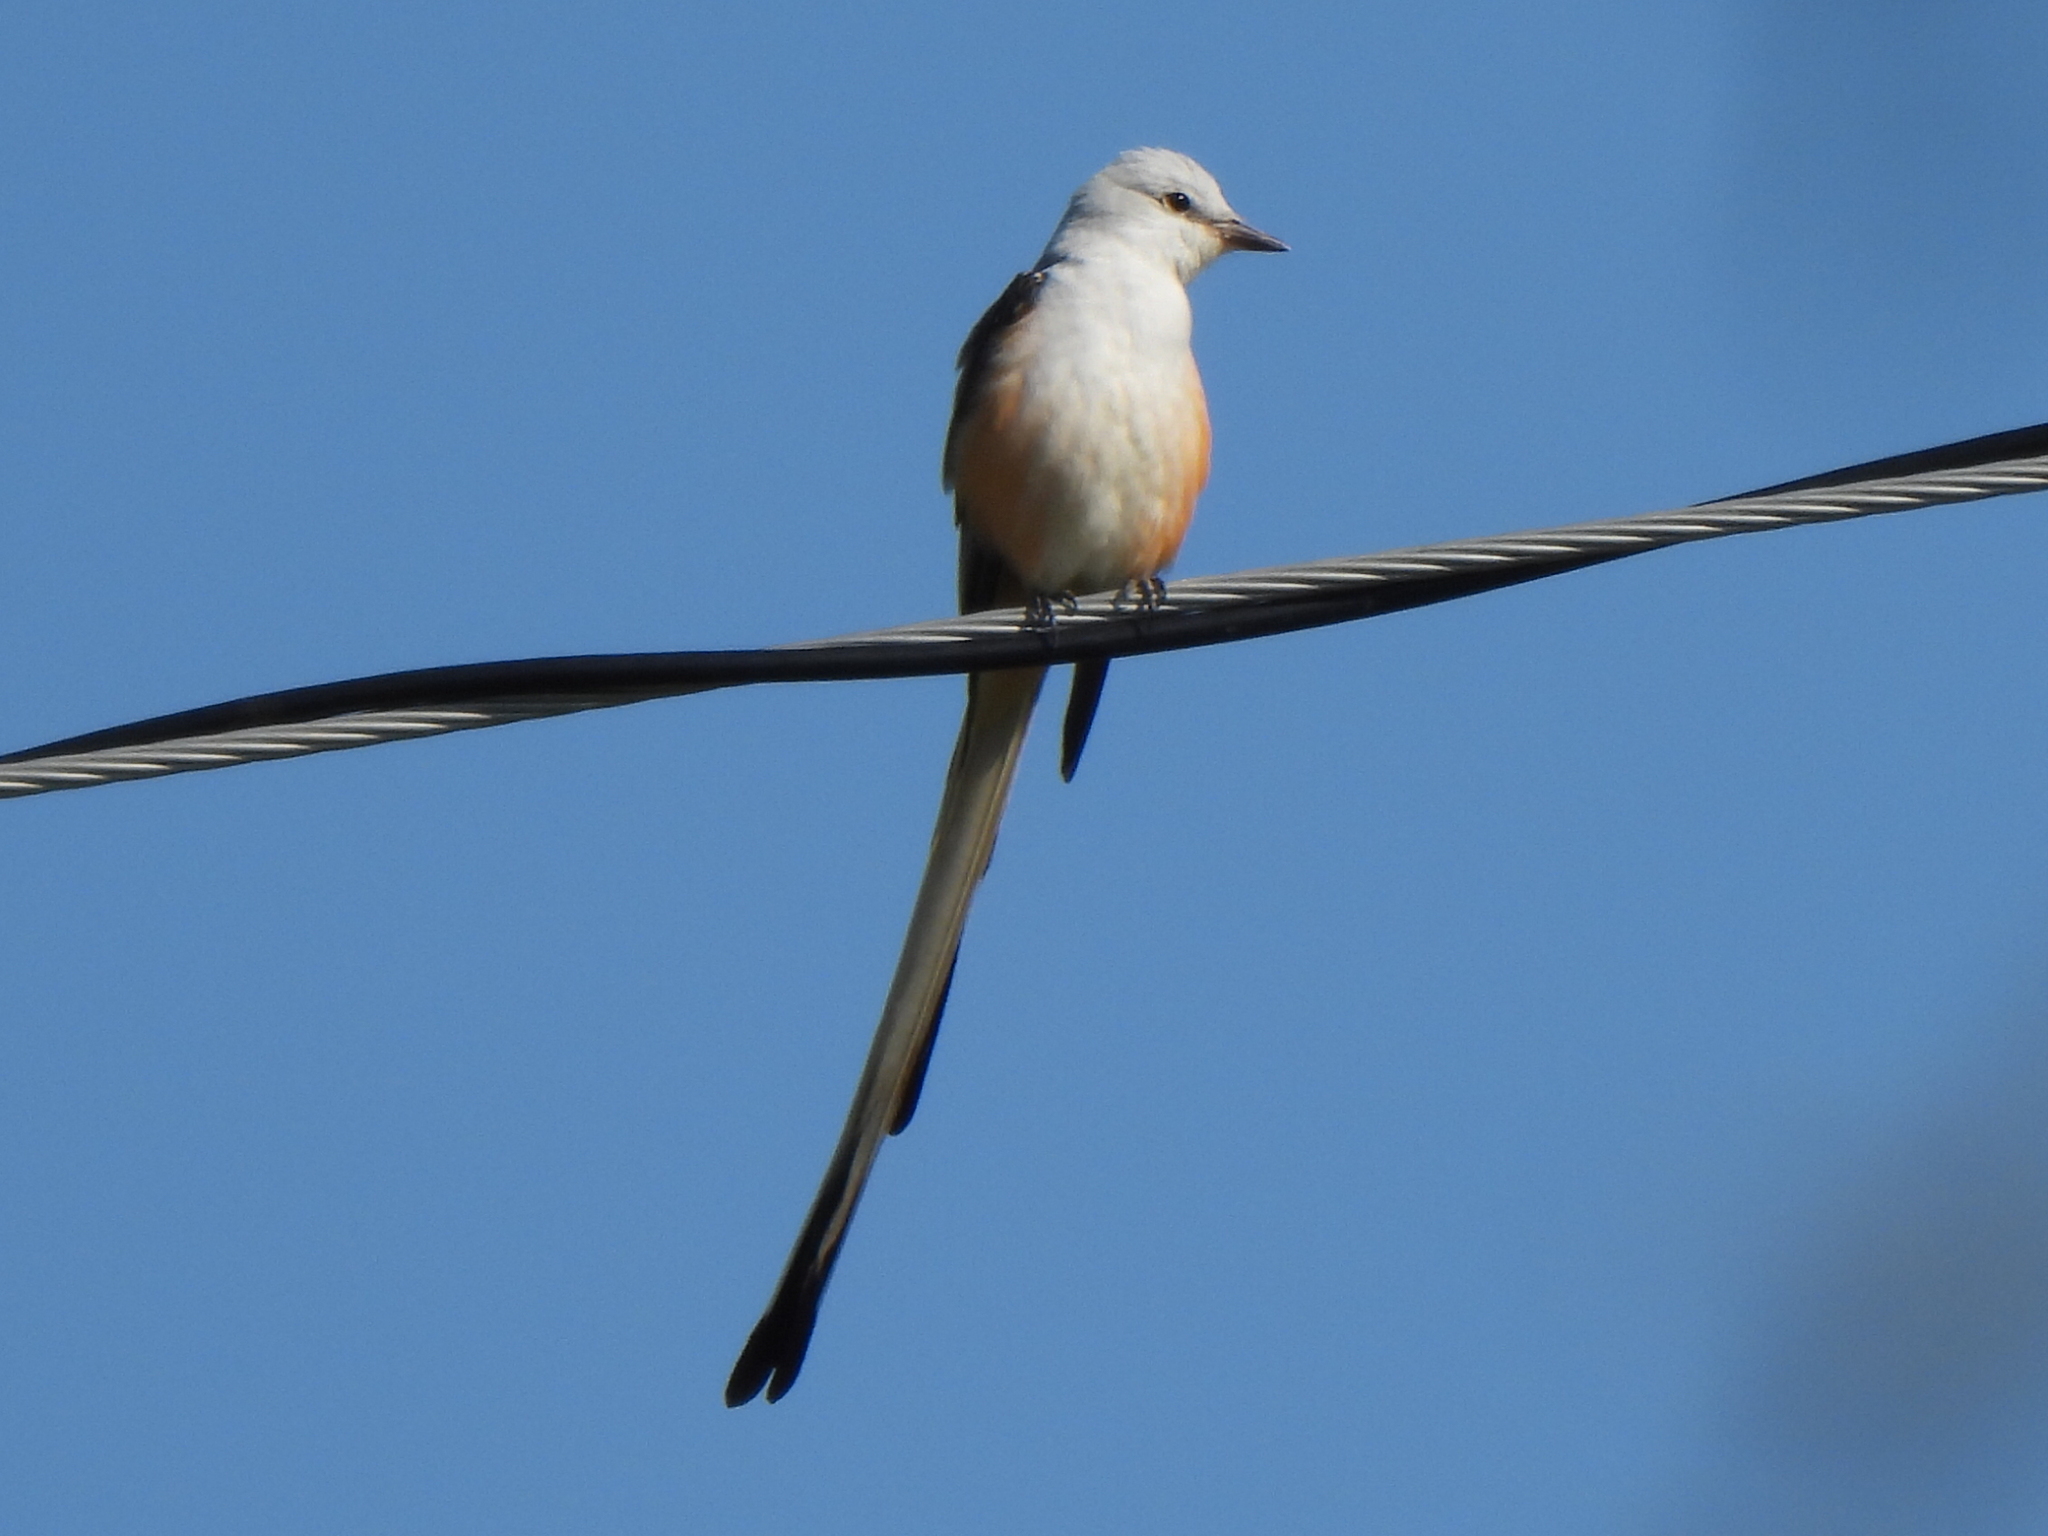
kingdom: Animalia
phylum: Chordata
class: Aves
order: Passeriformes
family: Tyrannidae
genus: Tyrannus
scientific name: Tyrannus forficatus
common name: Scissor-tailed flycatcher
